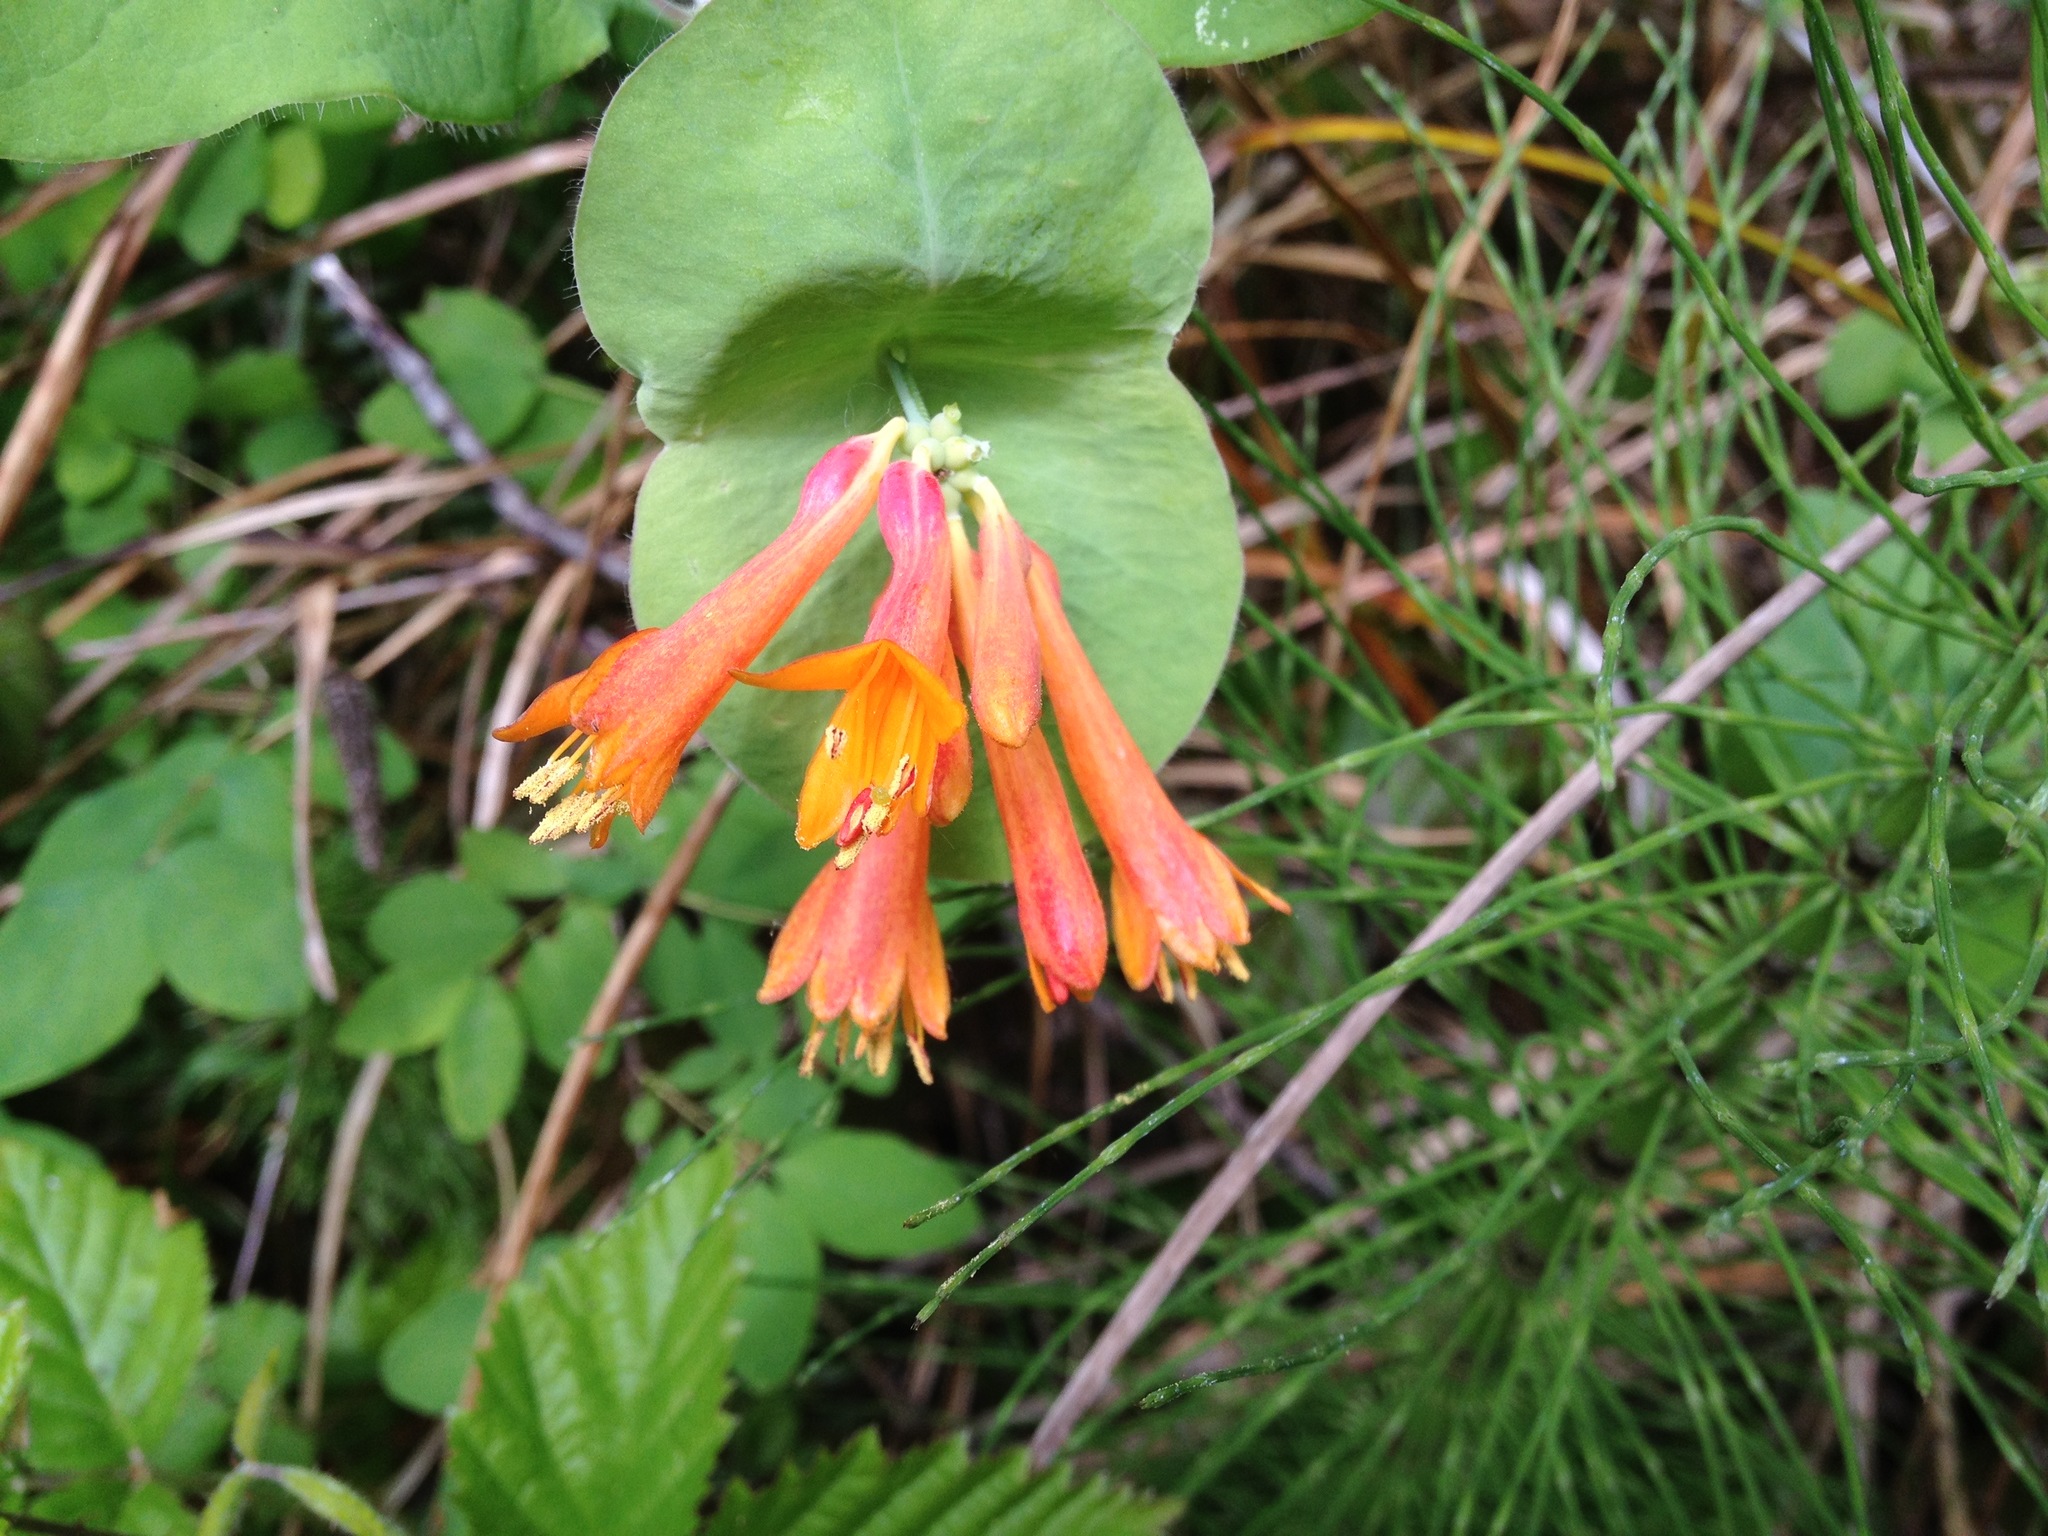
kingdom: Plantae
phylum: Tracheophyta
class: Magnoliopsida
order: Dipsacales
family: Caprifoliaceae
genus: Lonicera
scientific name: Lonicera ciliosa
